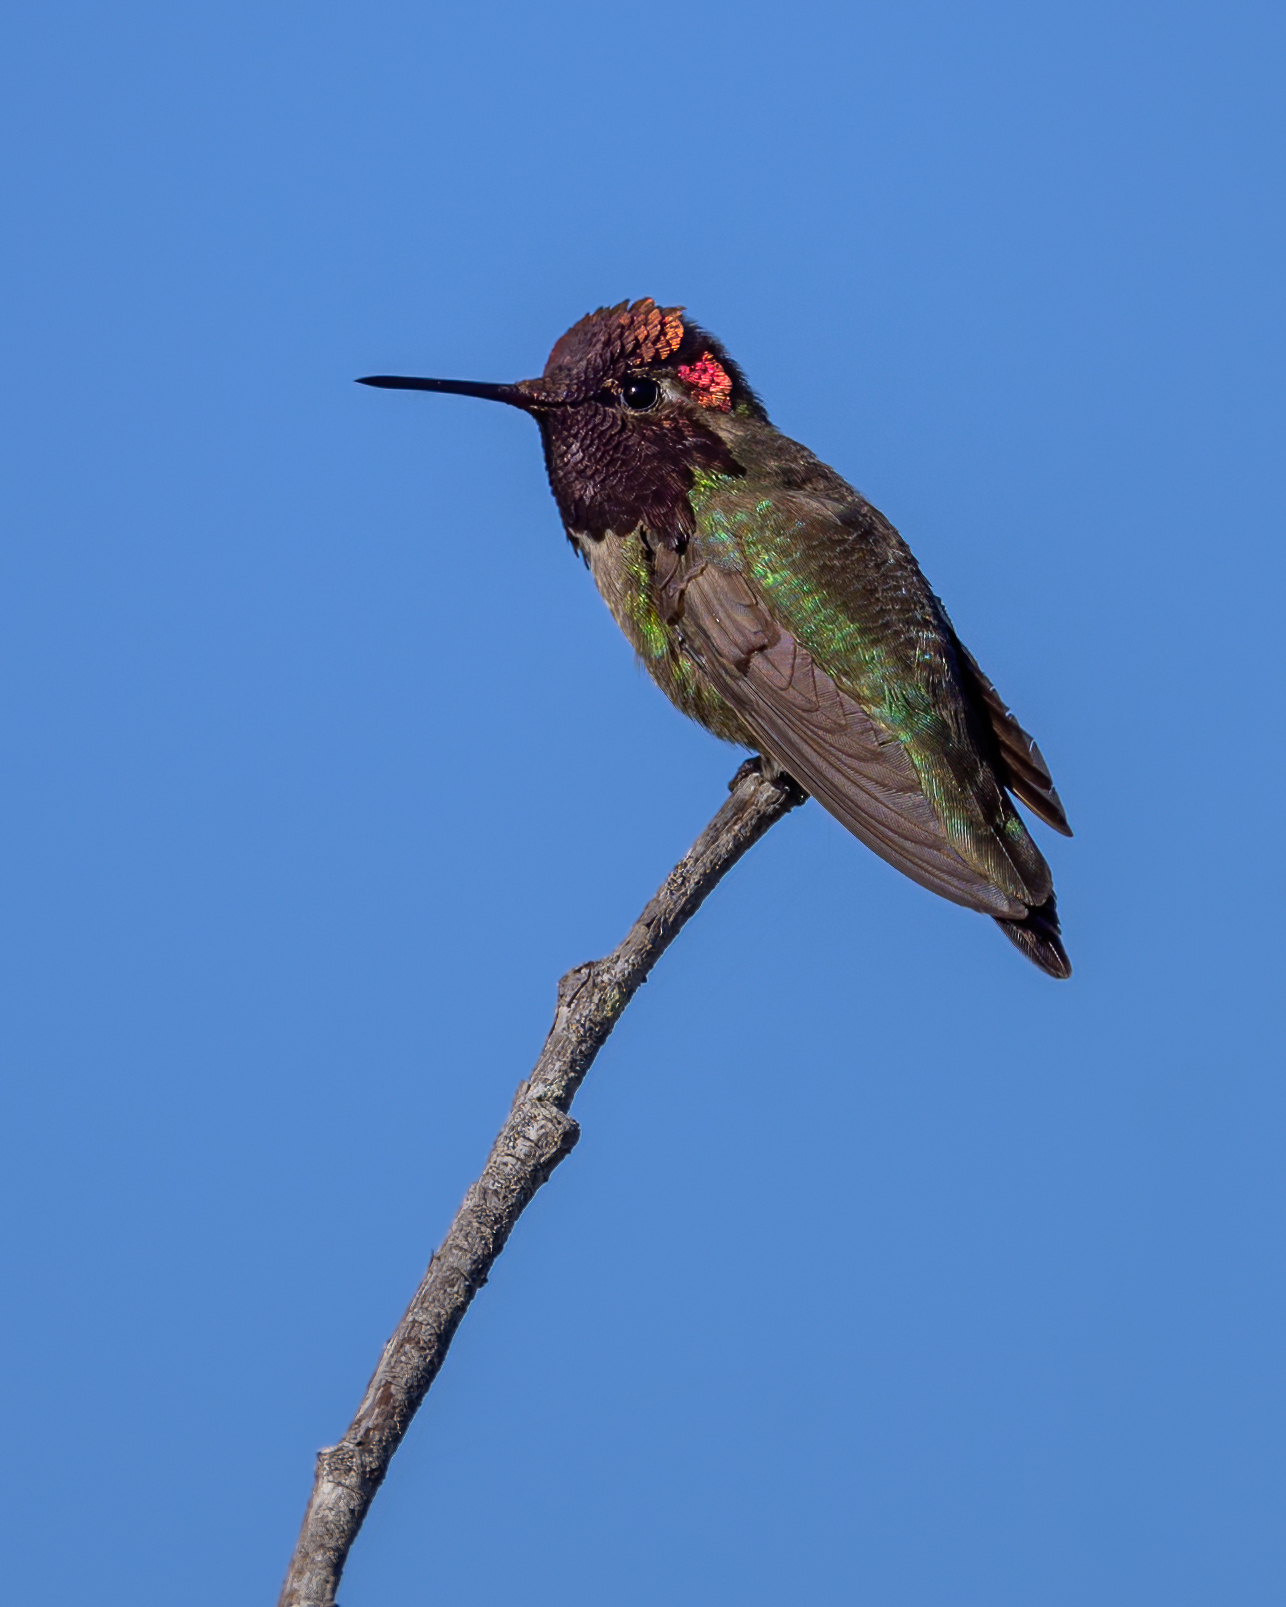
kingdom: Animalia
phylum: Chordata
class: Aves
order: Apodiformes
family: Trochilidae
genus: Calypte
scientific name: Calypte anna
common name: Anna's hummingbird
